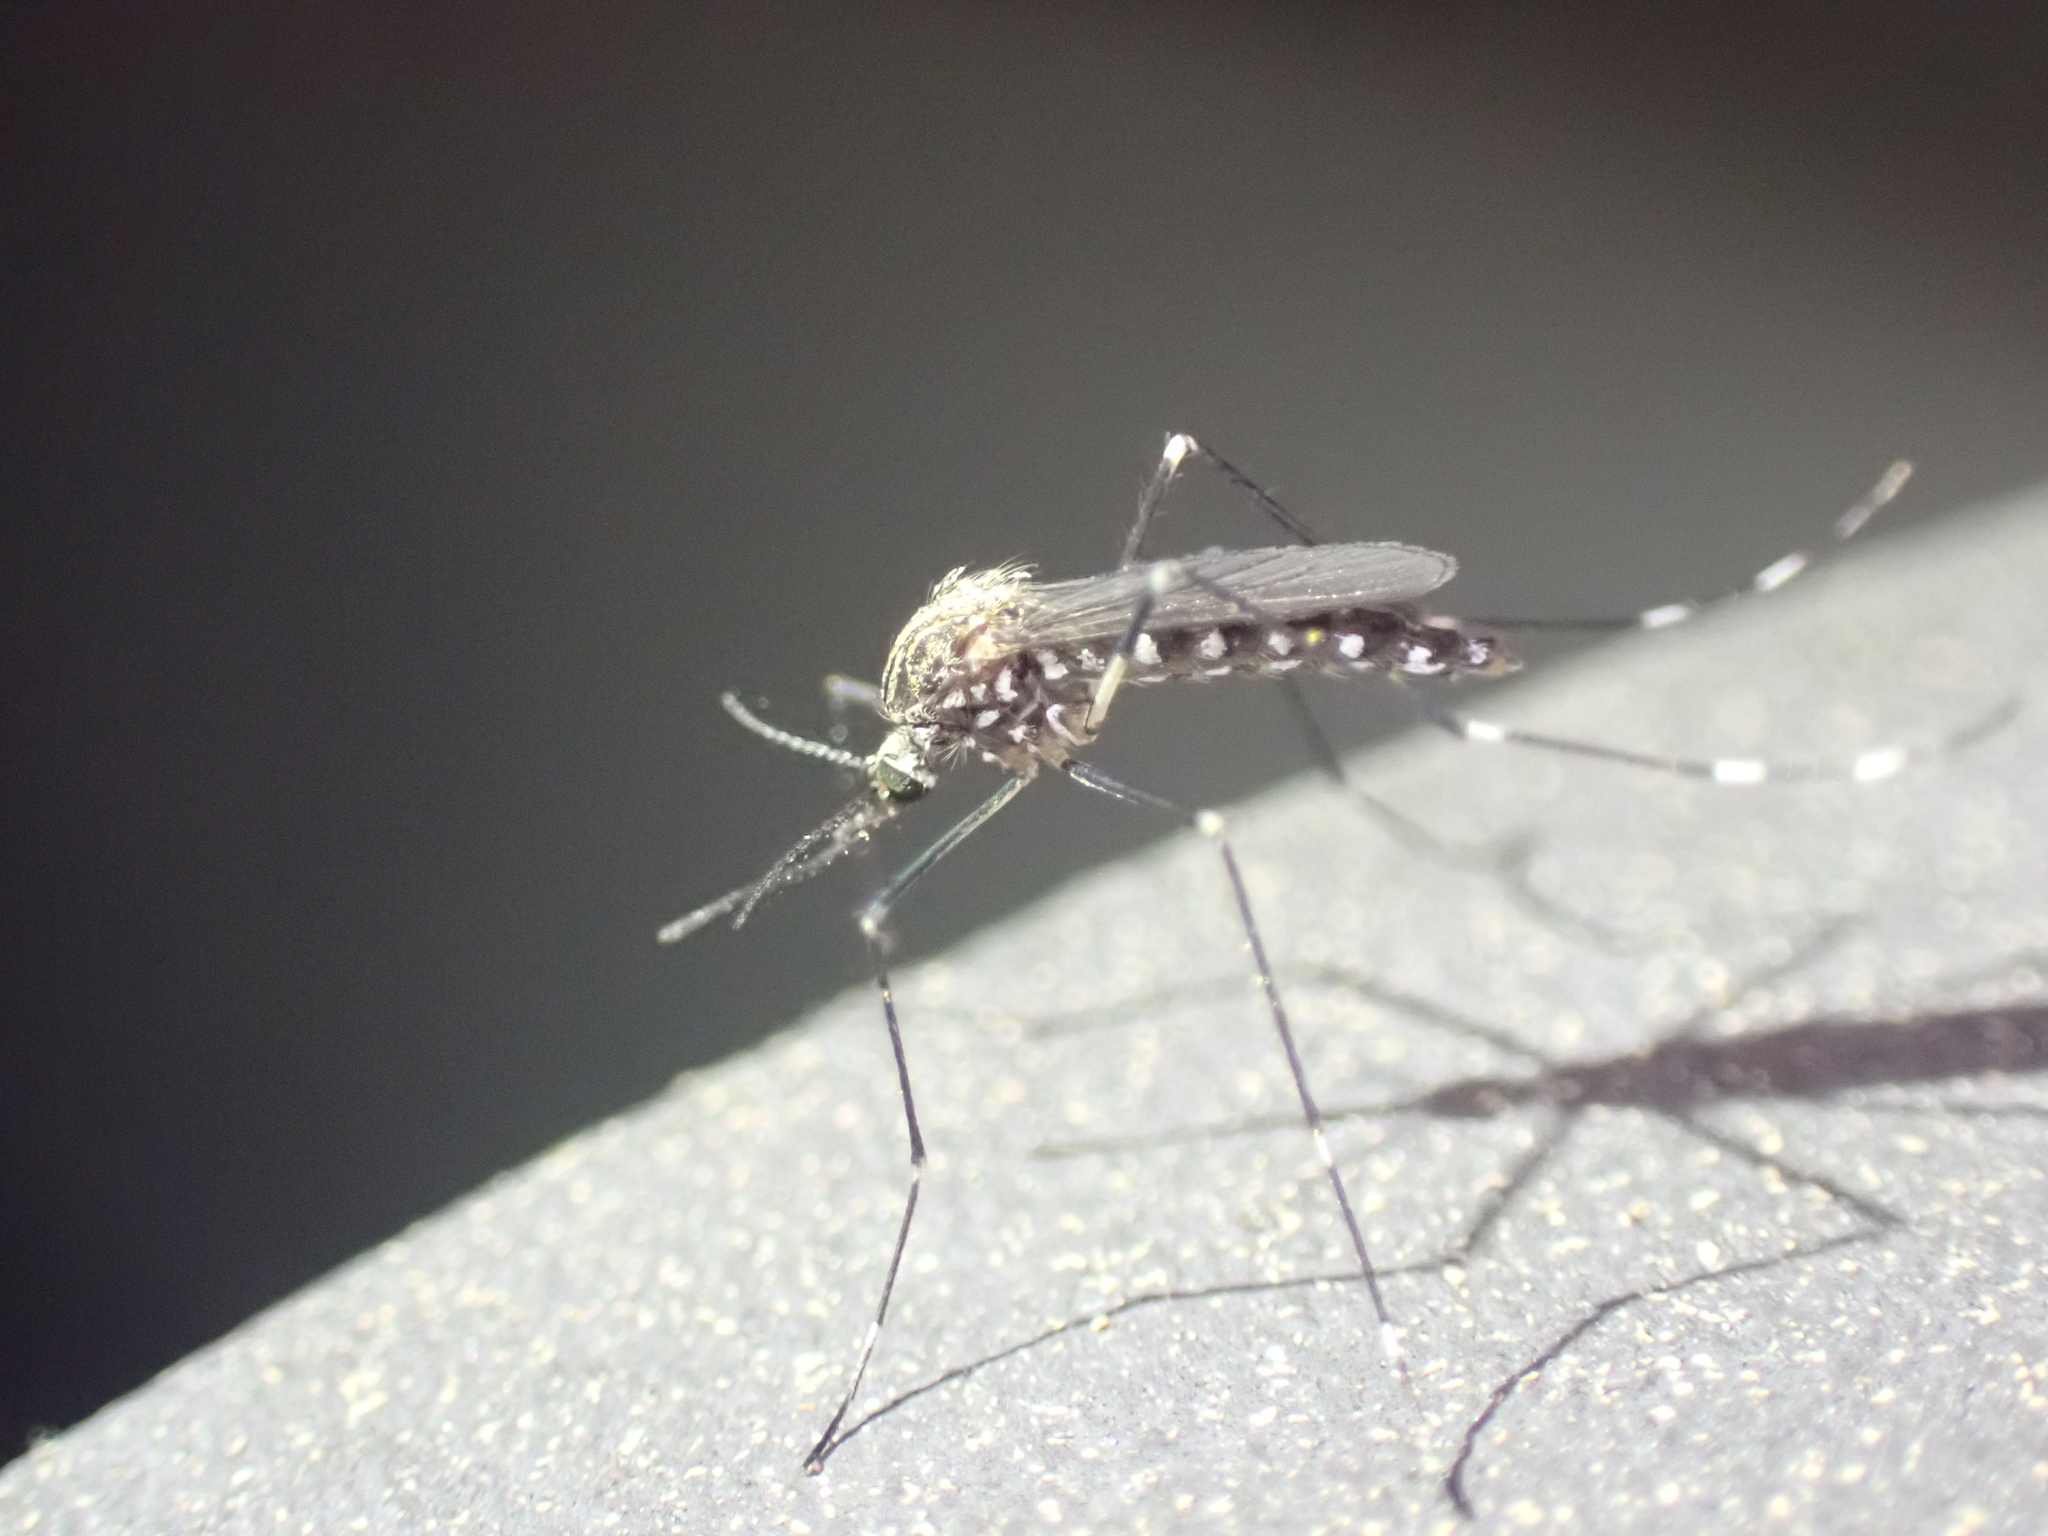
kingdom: Animalia
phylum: Arthropoda
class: Insecta
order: Diptera
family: Culicidae
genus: Aedes
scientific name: Aedes japonicus
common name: Asian bush mosquito
